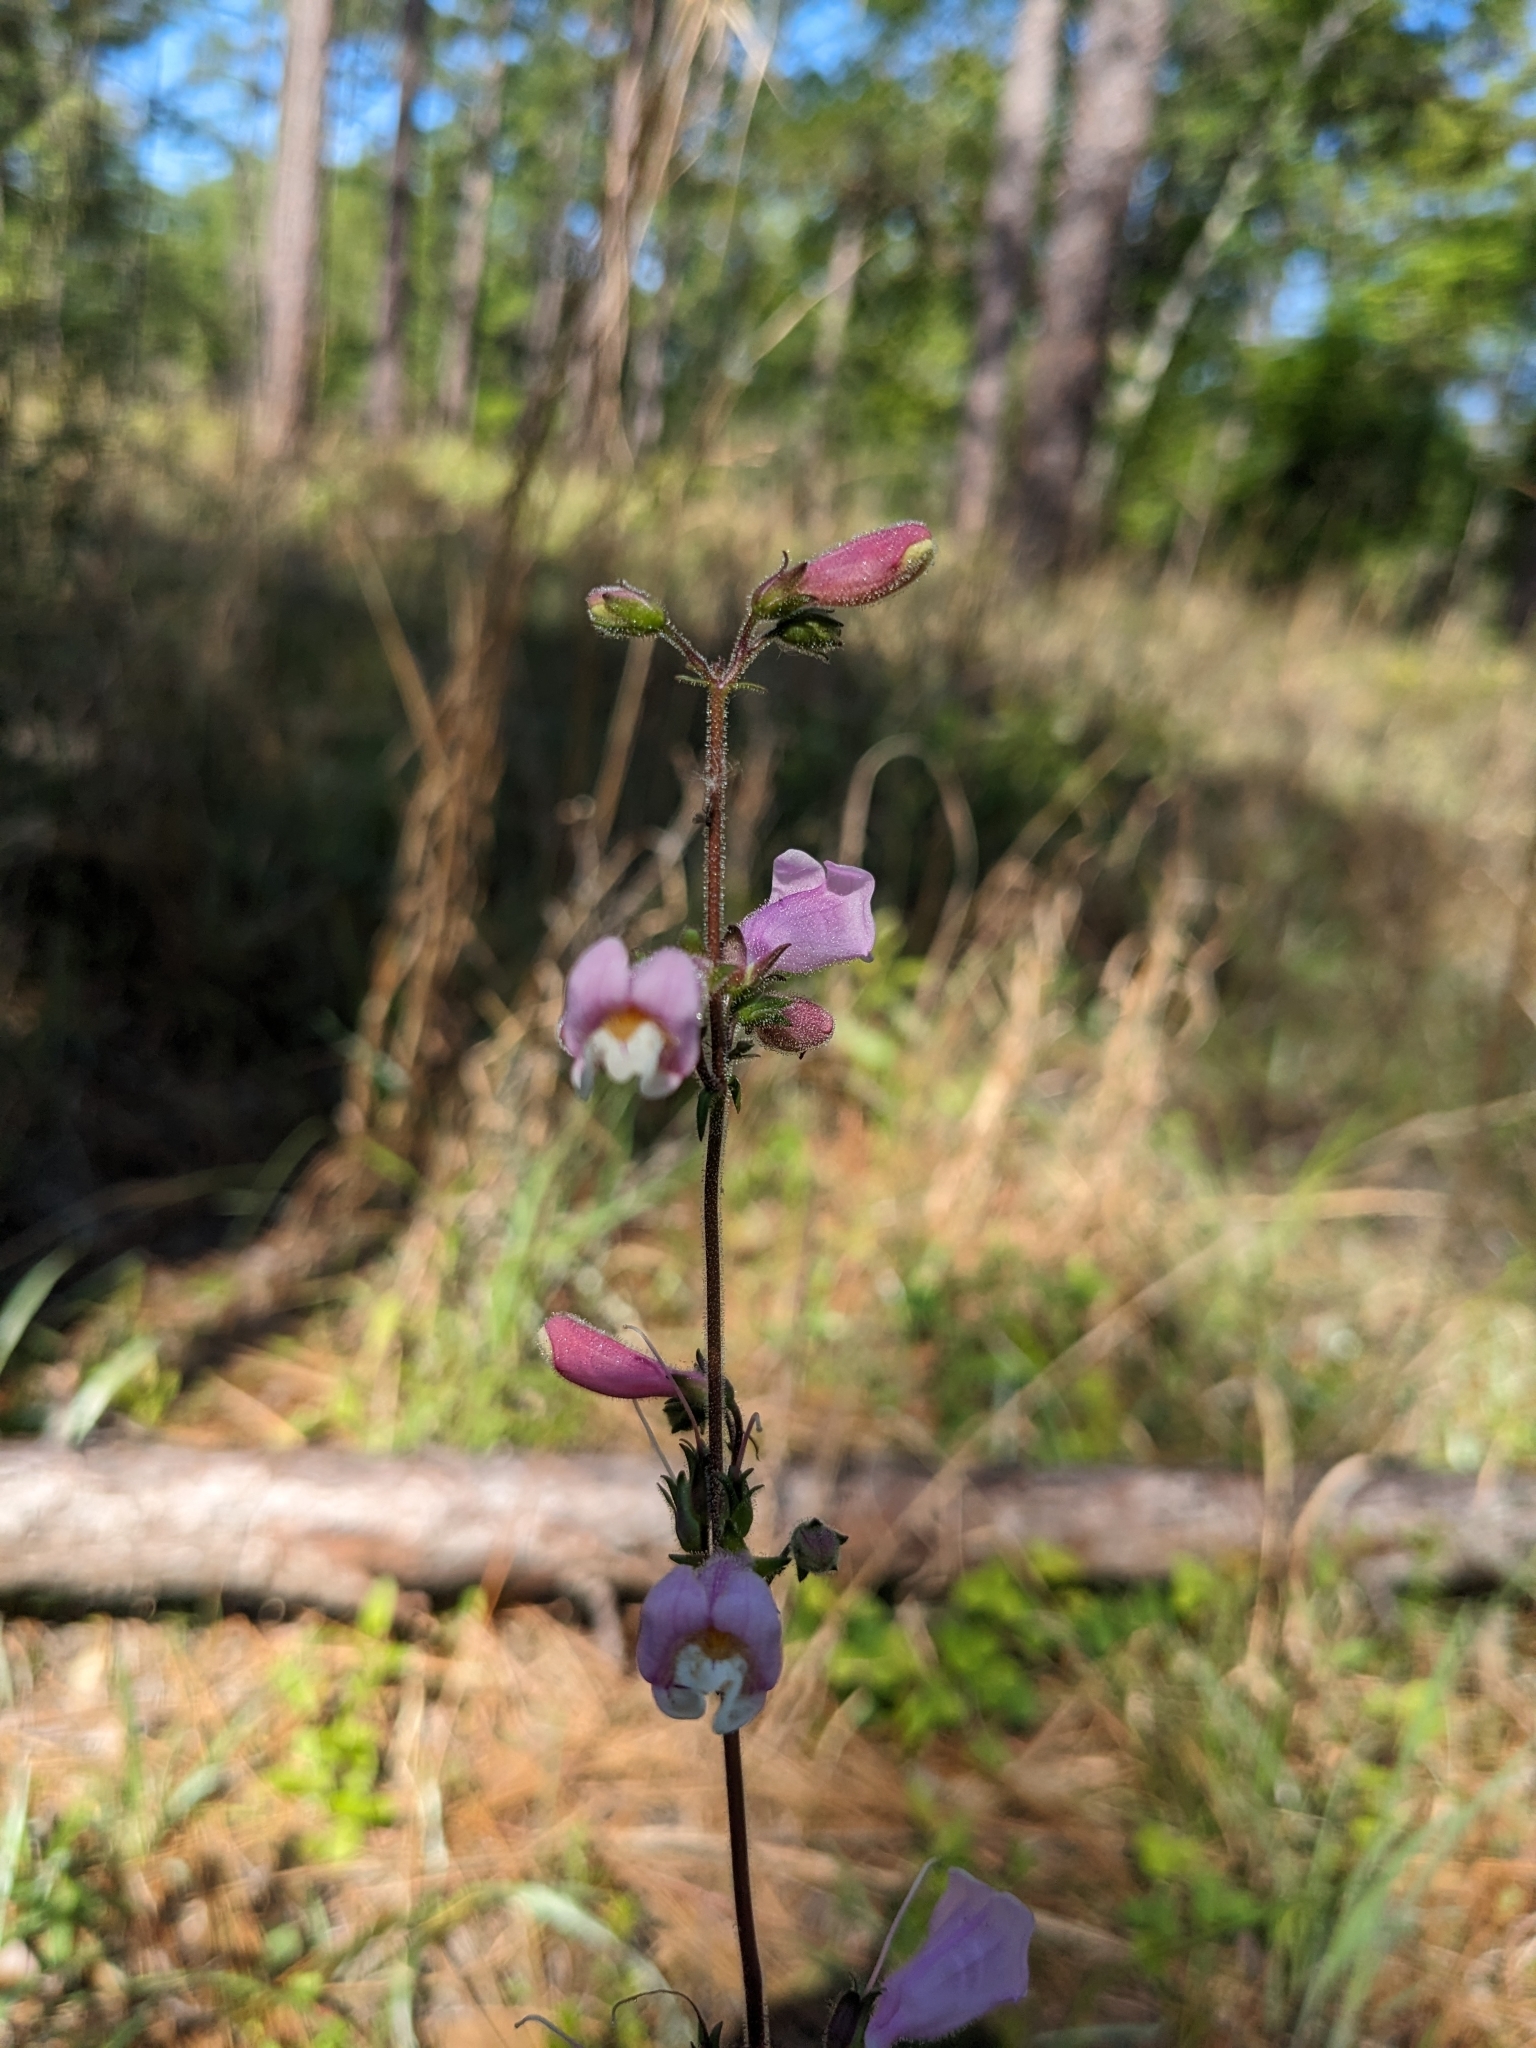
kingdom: Plantae
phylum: Tracheophyta
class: Magnoliopsida
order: Lamiales
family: Plantaginaceae
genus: Penstemon
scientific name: Penstemon australis
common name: Southeastern beardtongue
